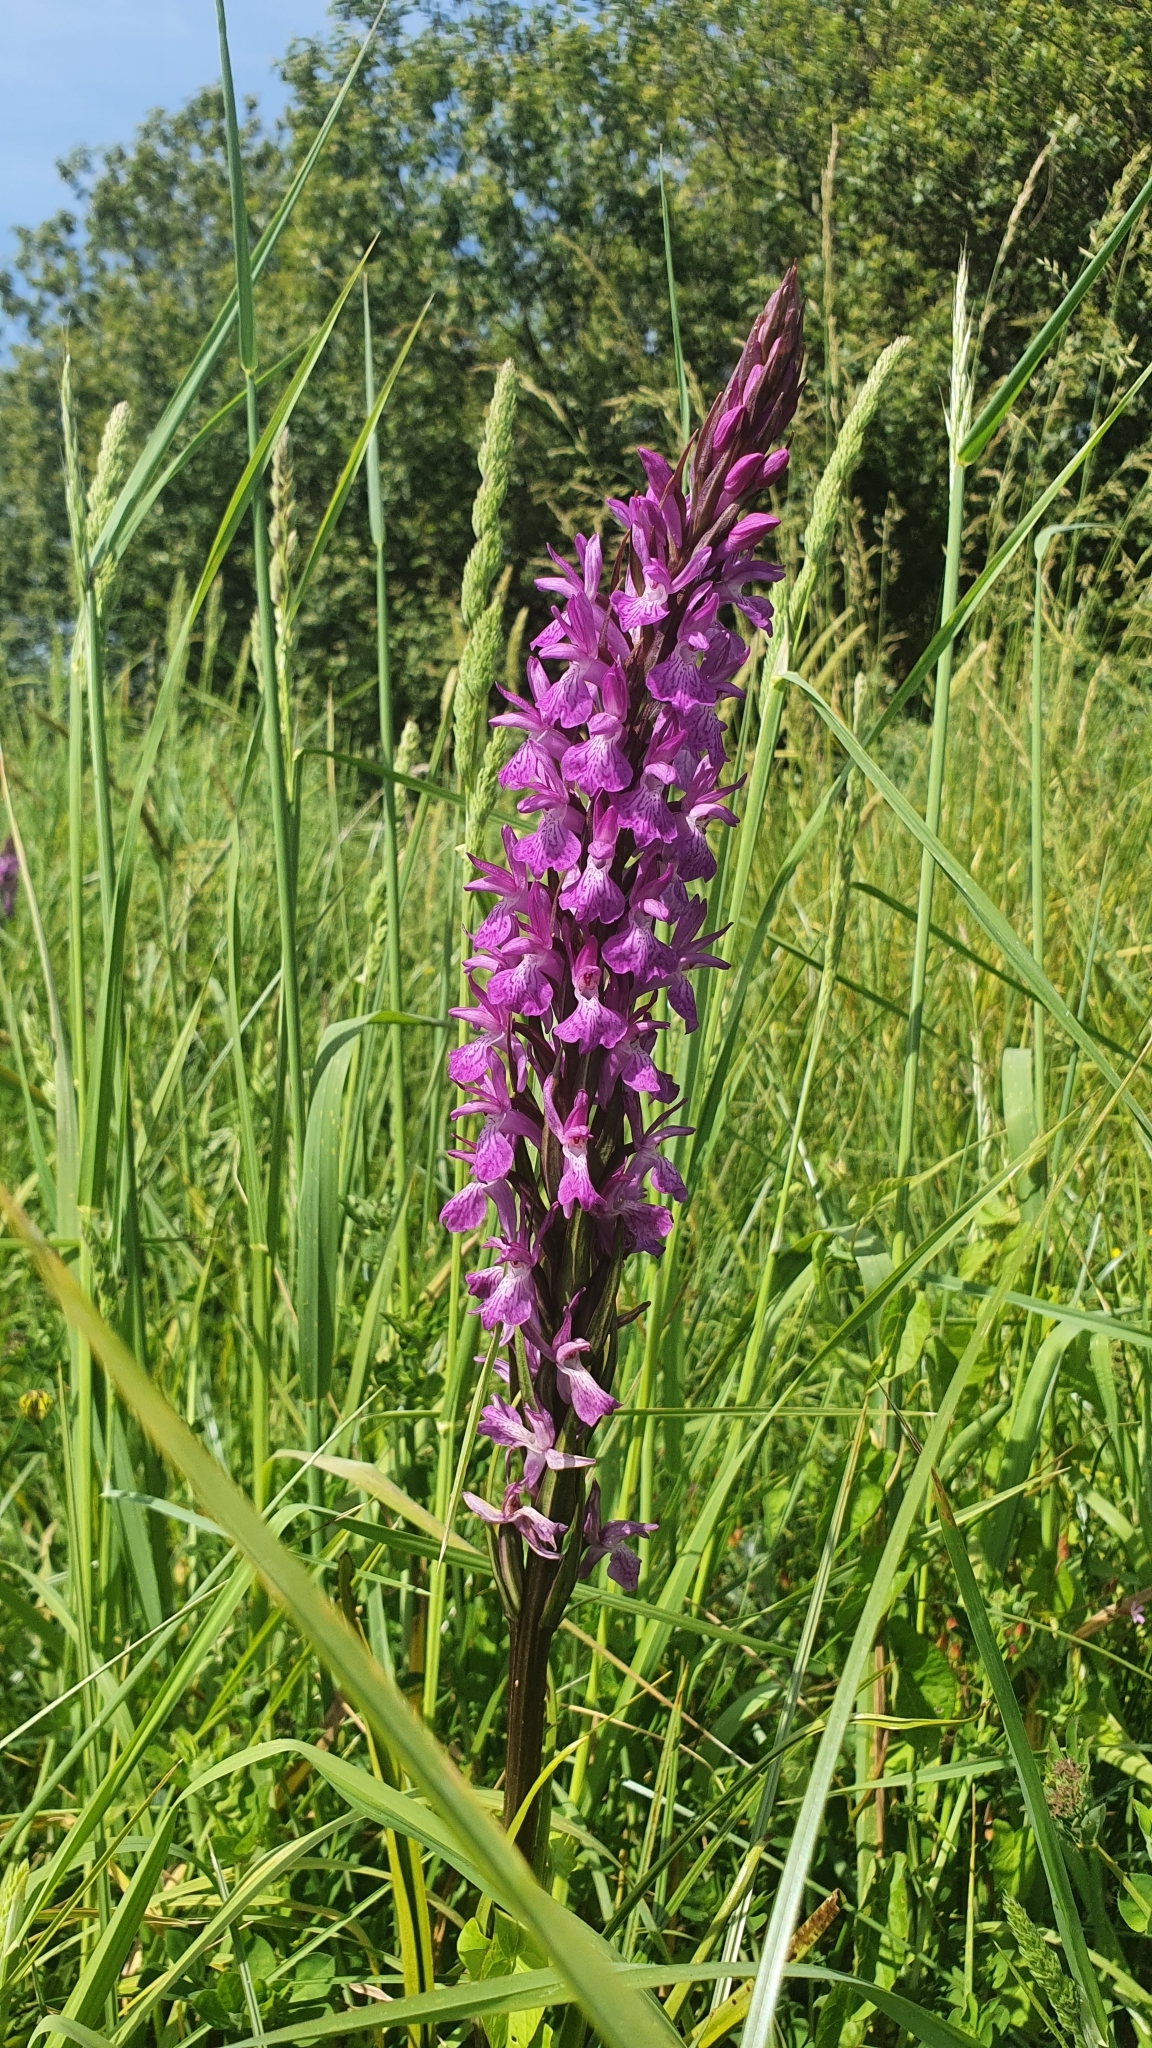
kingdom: Plantae
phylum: Tracheophyta
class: Liliopsida
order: Asparagales
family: Orchidaceae
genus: Dactylorhiza
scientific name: Dactylorhiza elata
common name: Stately dactylorhiza
